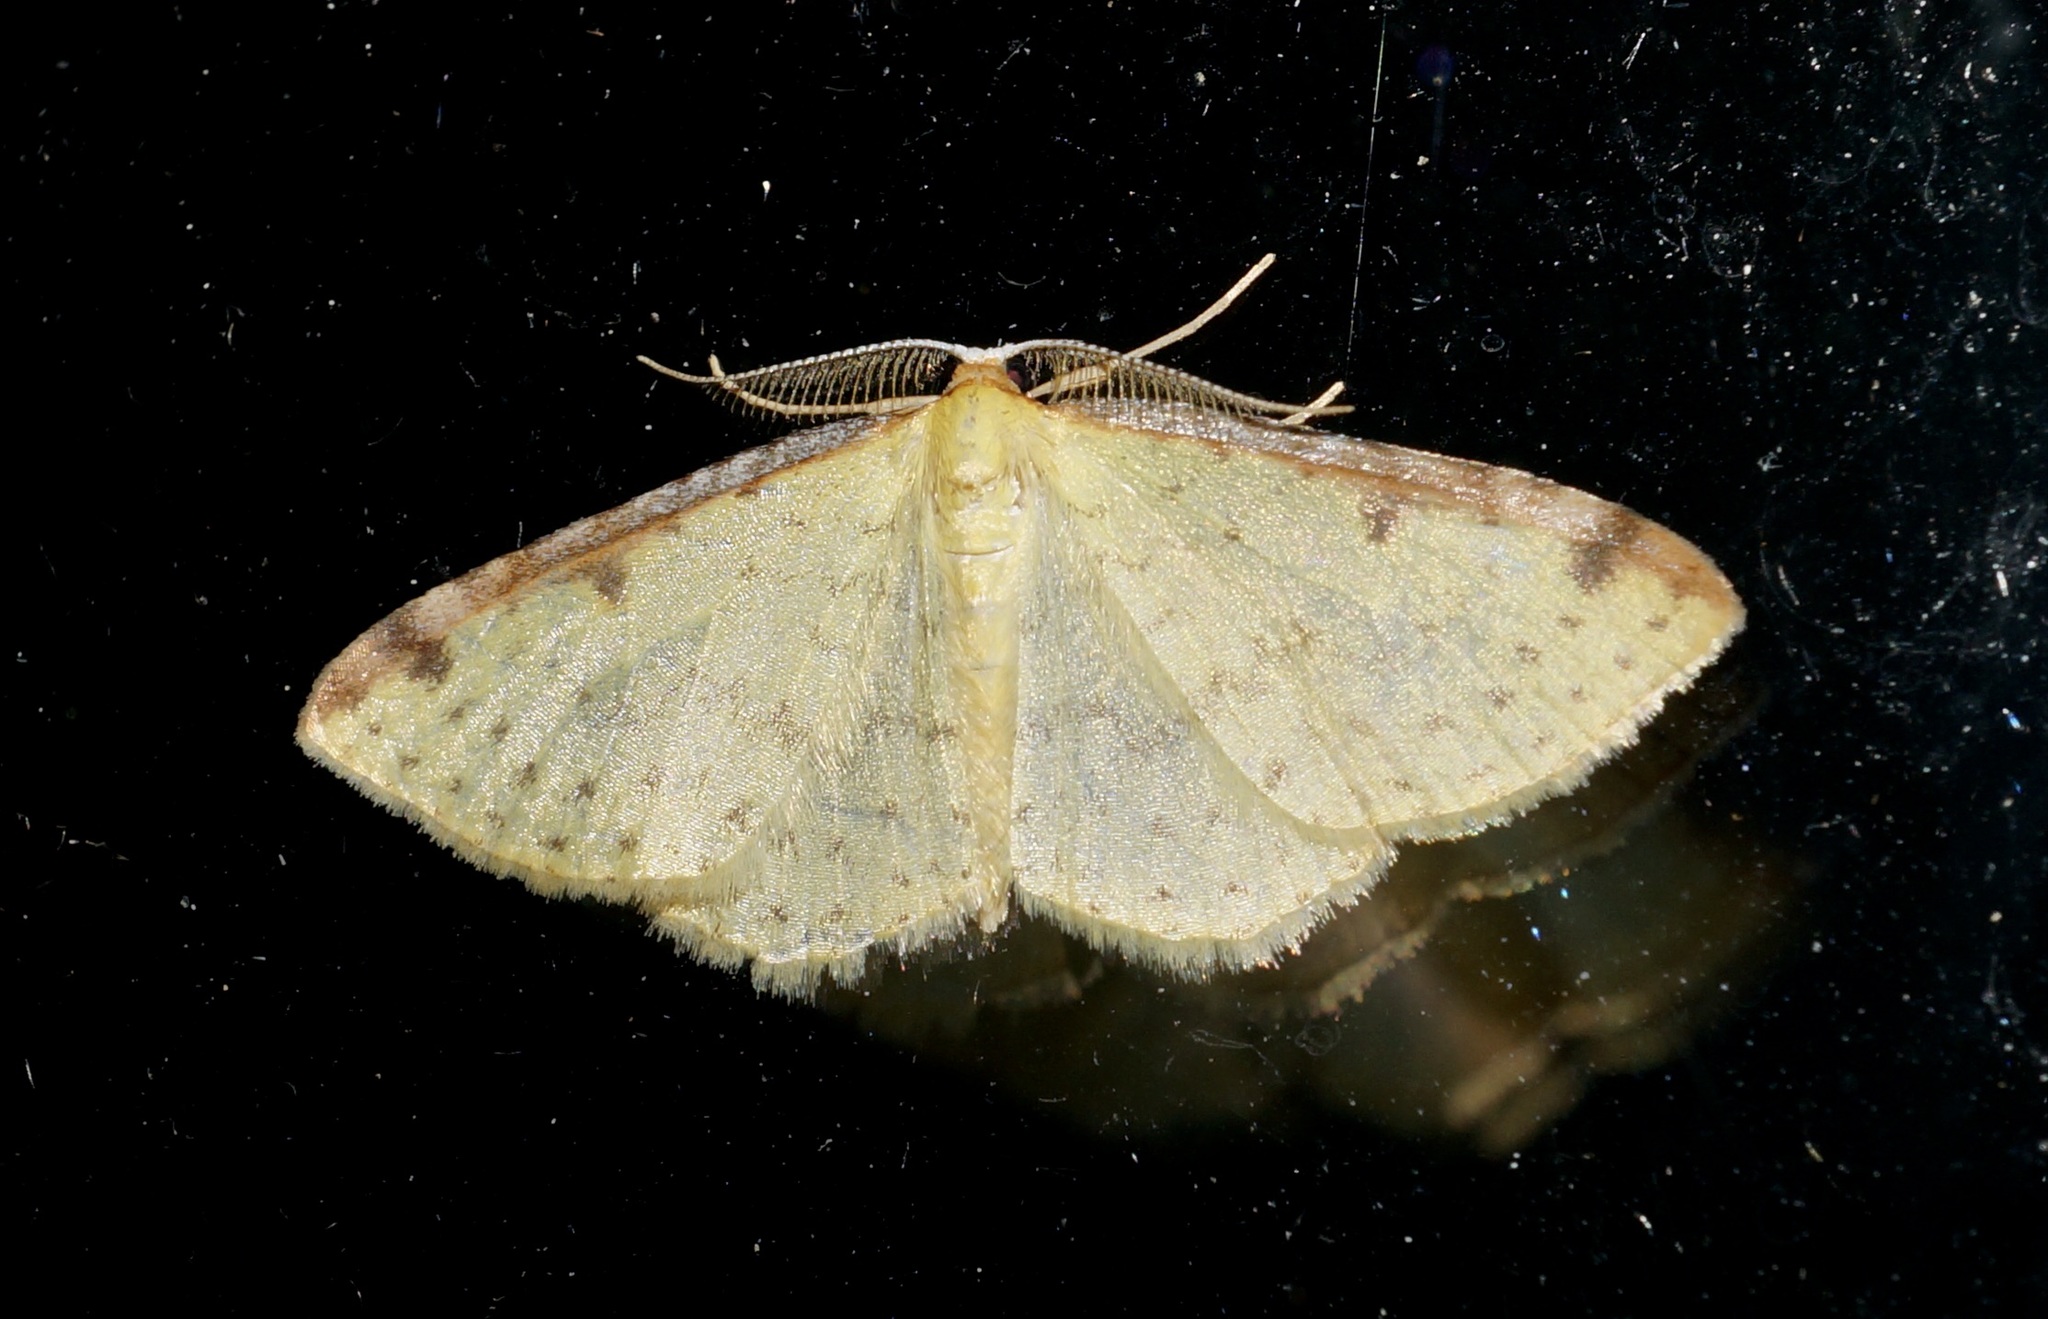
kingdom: Animalia
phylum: Arthropoda
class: Insecta
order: Lepidoptera
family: Geometridae
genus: Epiphryne
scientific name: Epiphryne undosata
